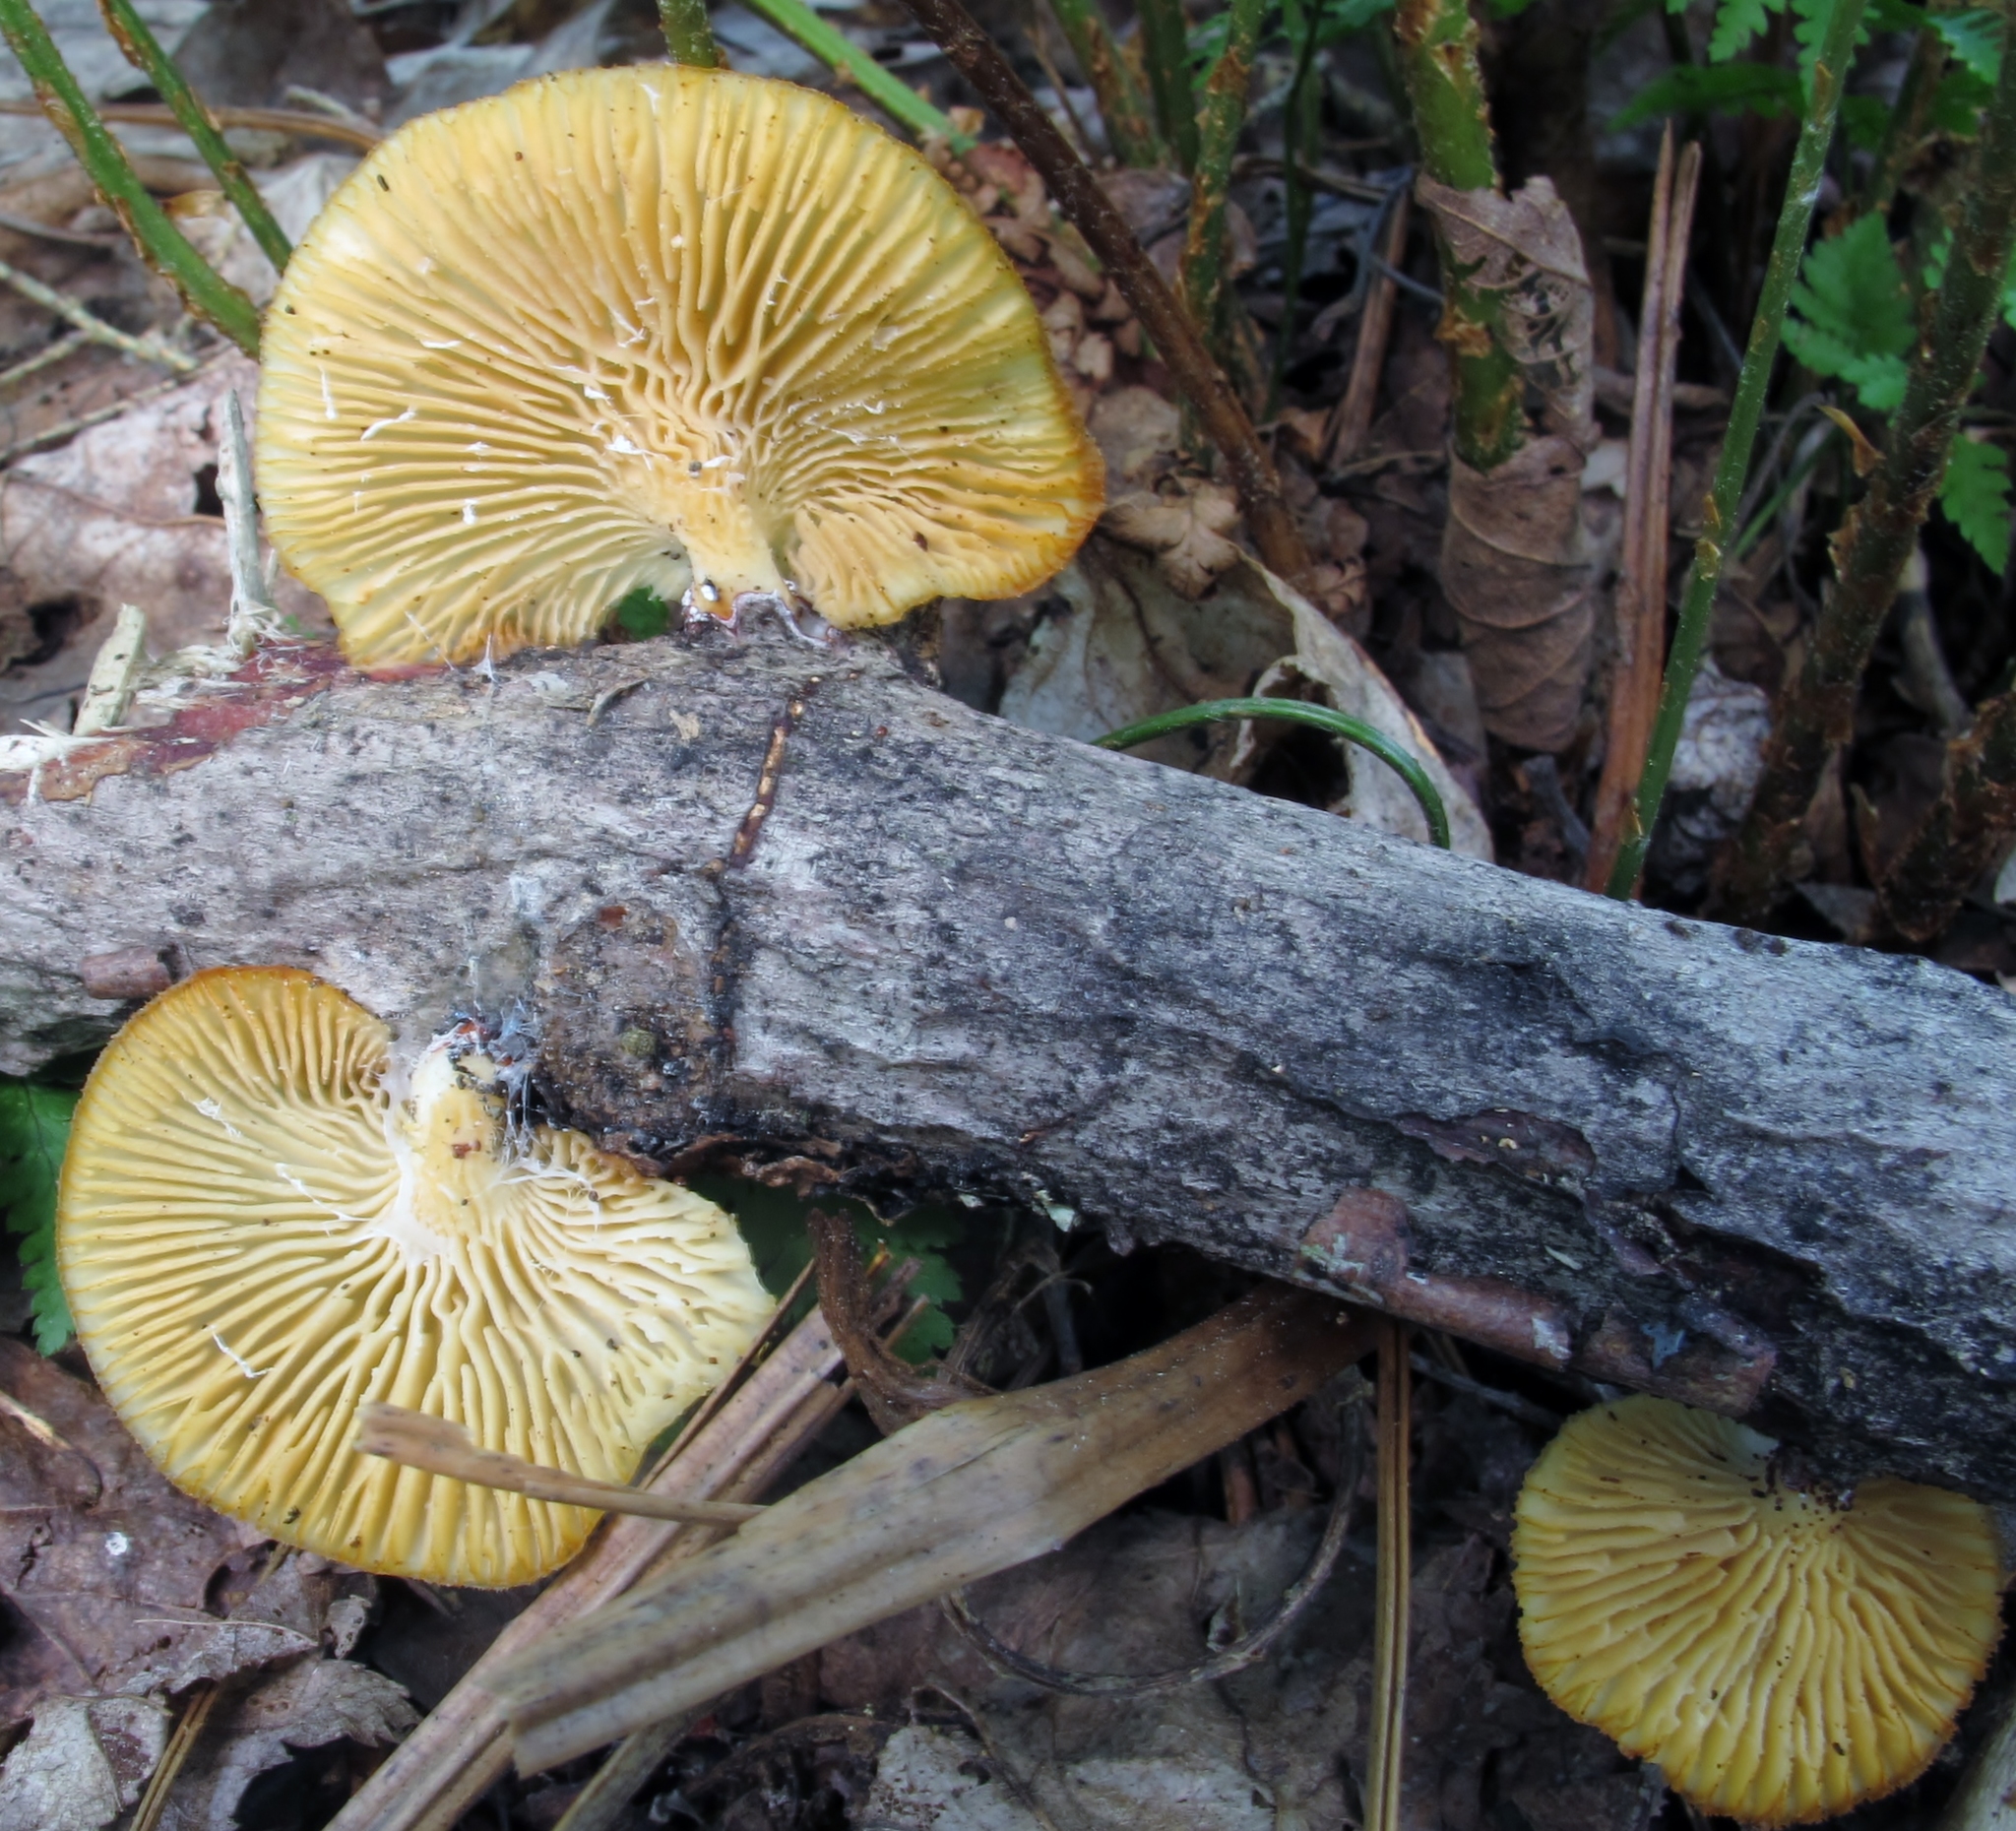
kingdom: Fungi
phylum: Basidiomycota
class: Agaricomycetes
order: Polyporales
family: Polyporaceae
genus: Neofavolus
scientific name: Neofavolus suavissimus
